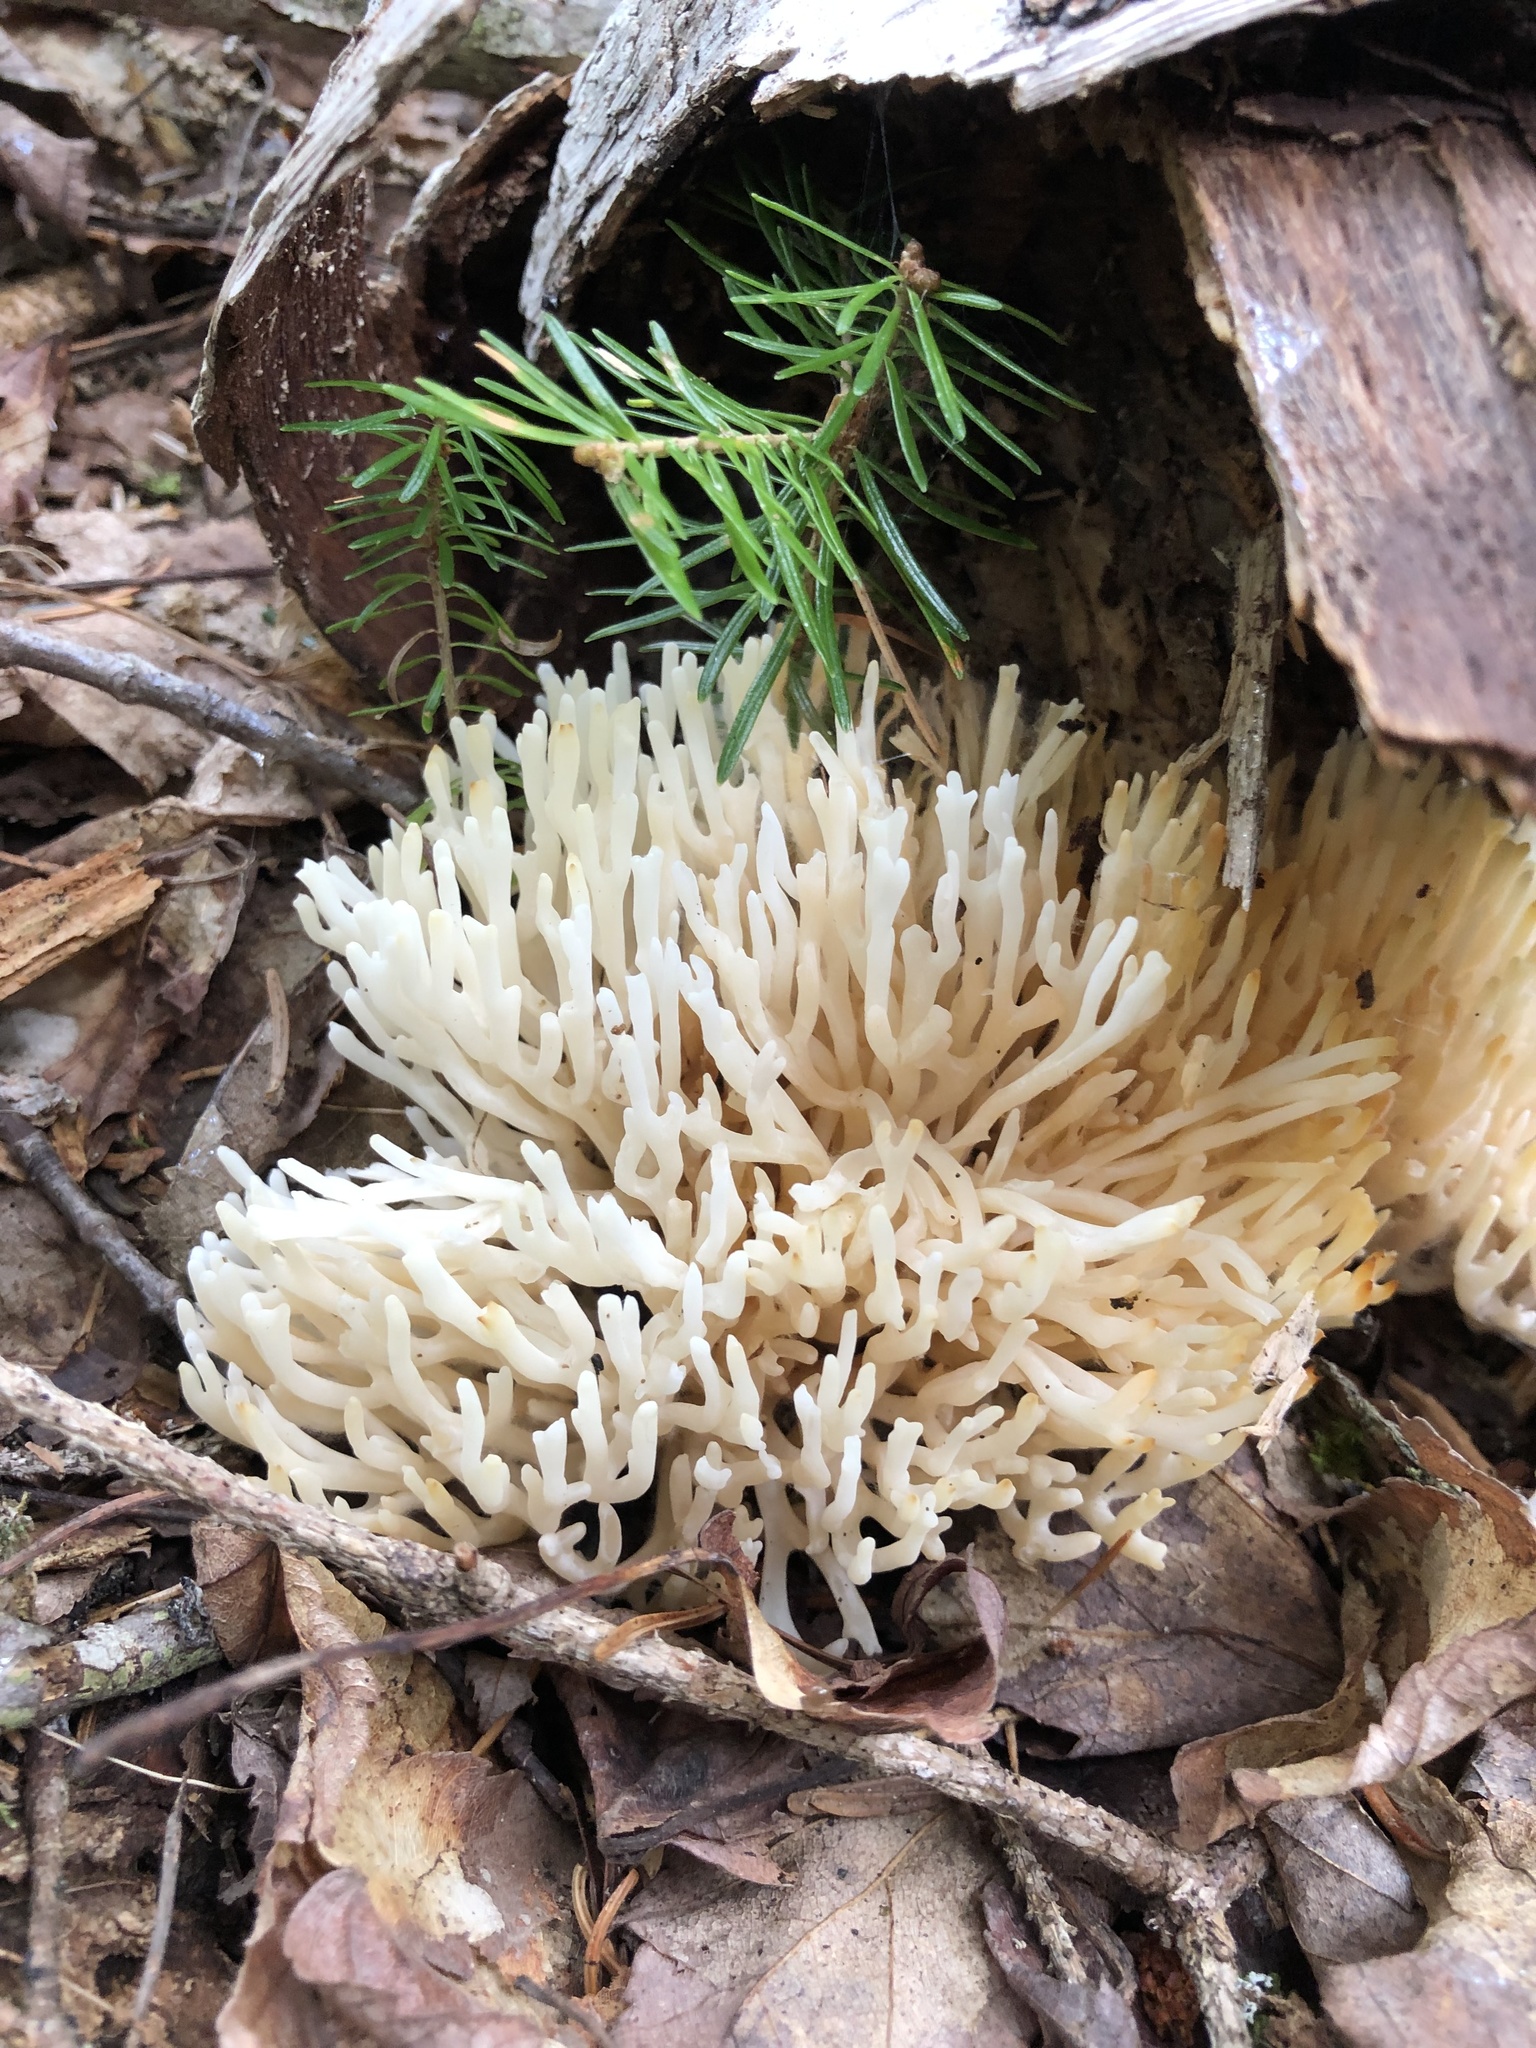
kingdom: Fungi
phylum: Basidiomycota
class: Agaricomycetes
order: Agaricales
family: Clavariaceae
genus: Ramariopsis
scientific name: Ramariopsis kunzei
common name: Ivory coral
